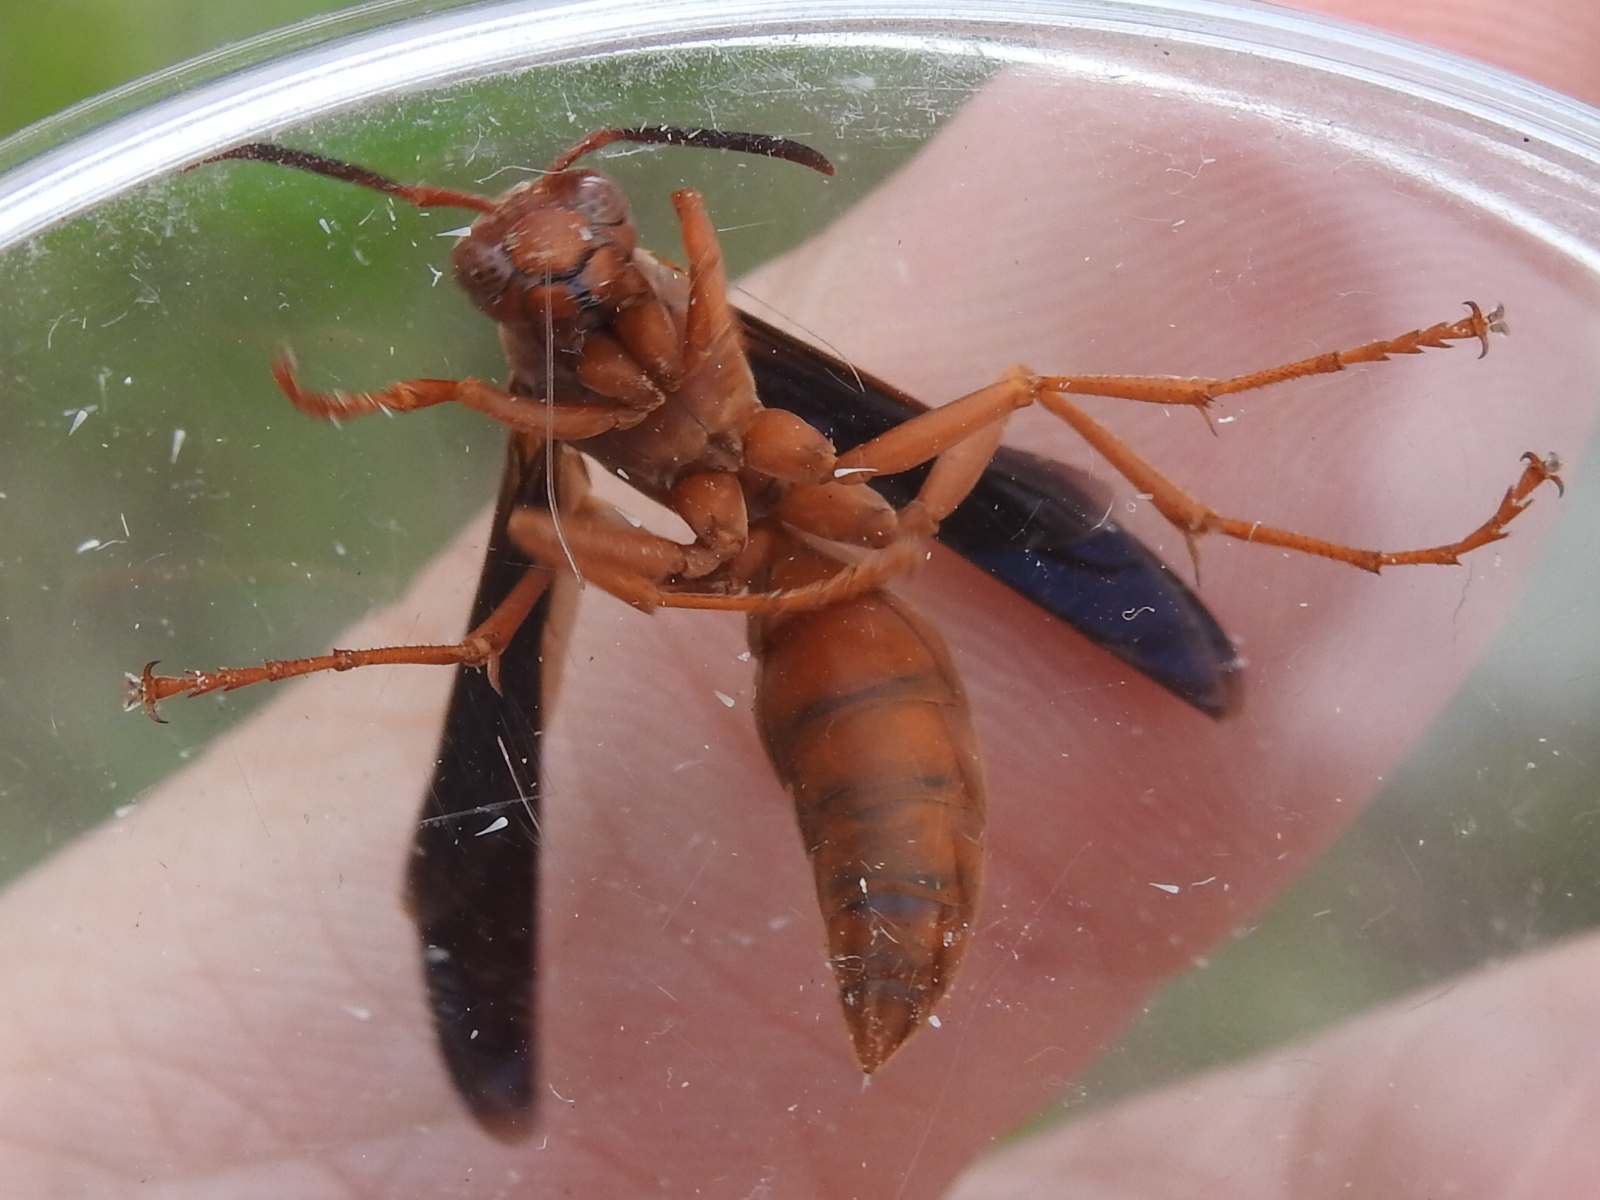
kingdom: Animalia
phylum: Arthropoda
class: Insecta
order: Hymenoptera
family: Vespidae
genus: Fuscopolistes
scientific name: Fuscopolistes
